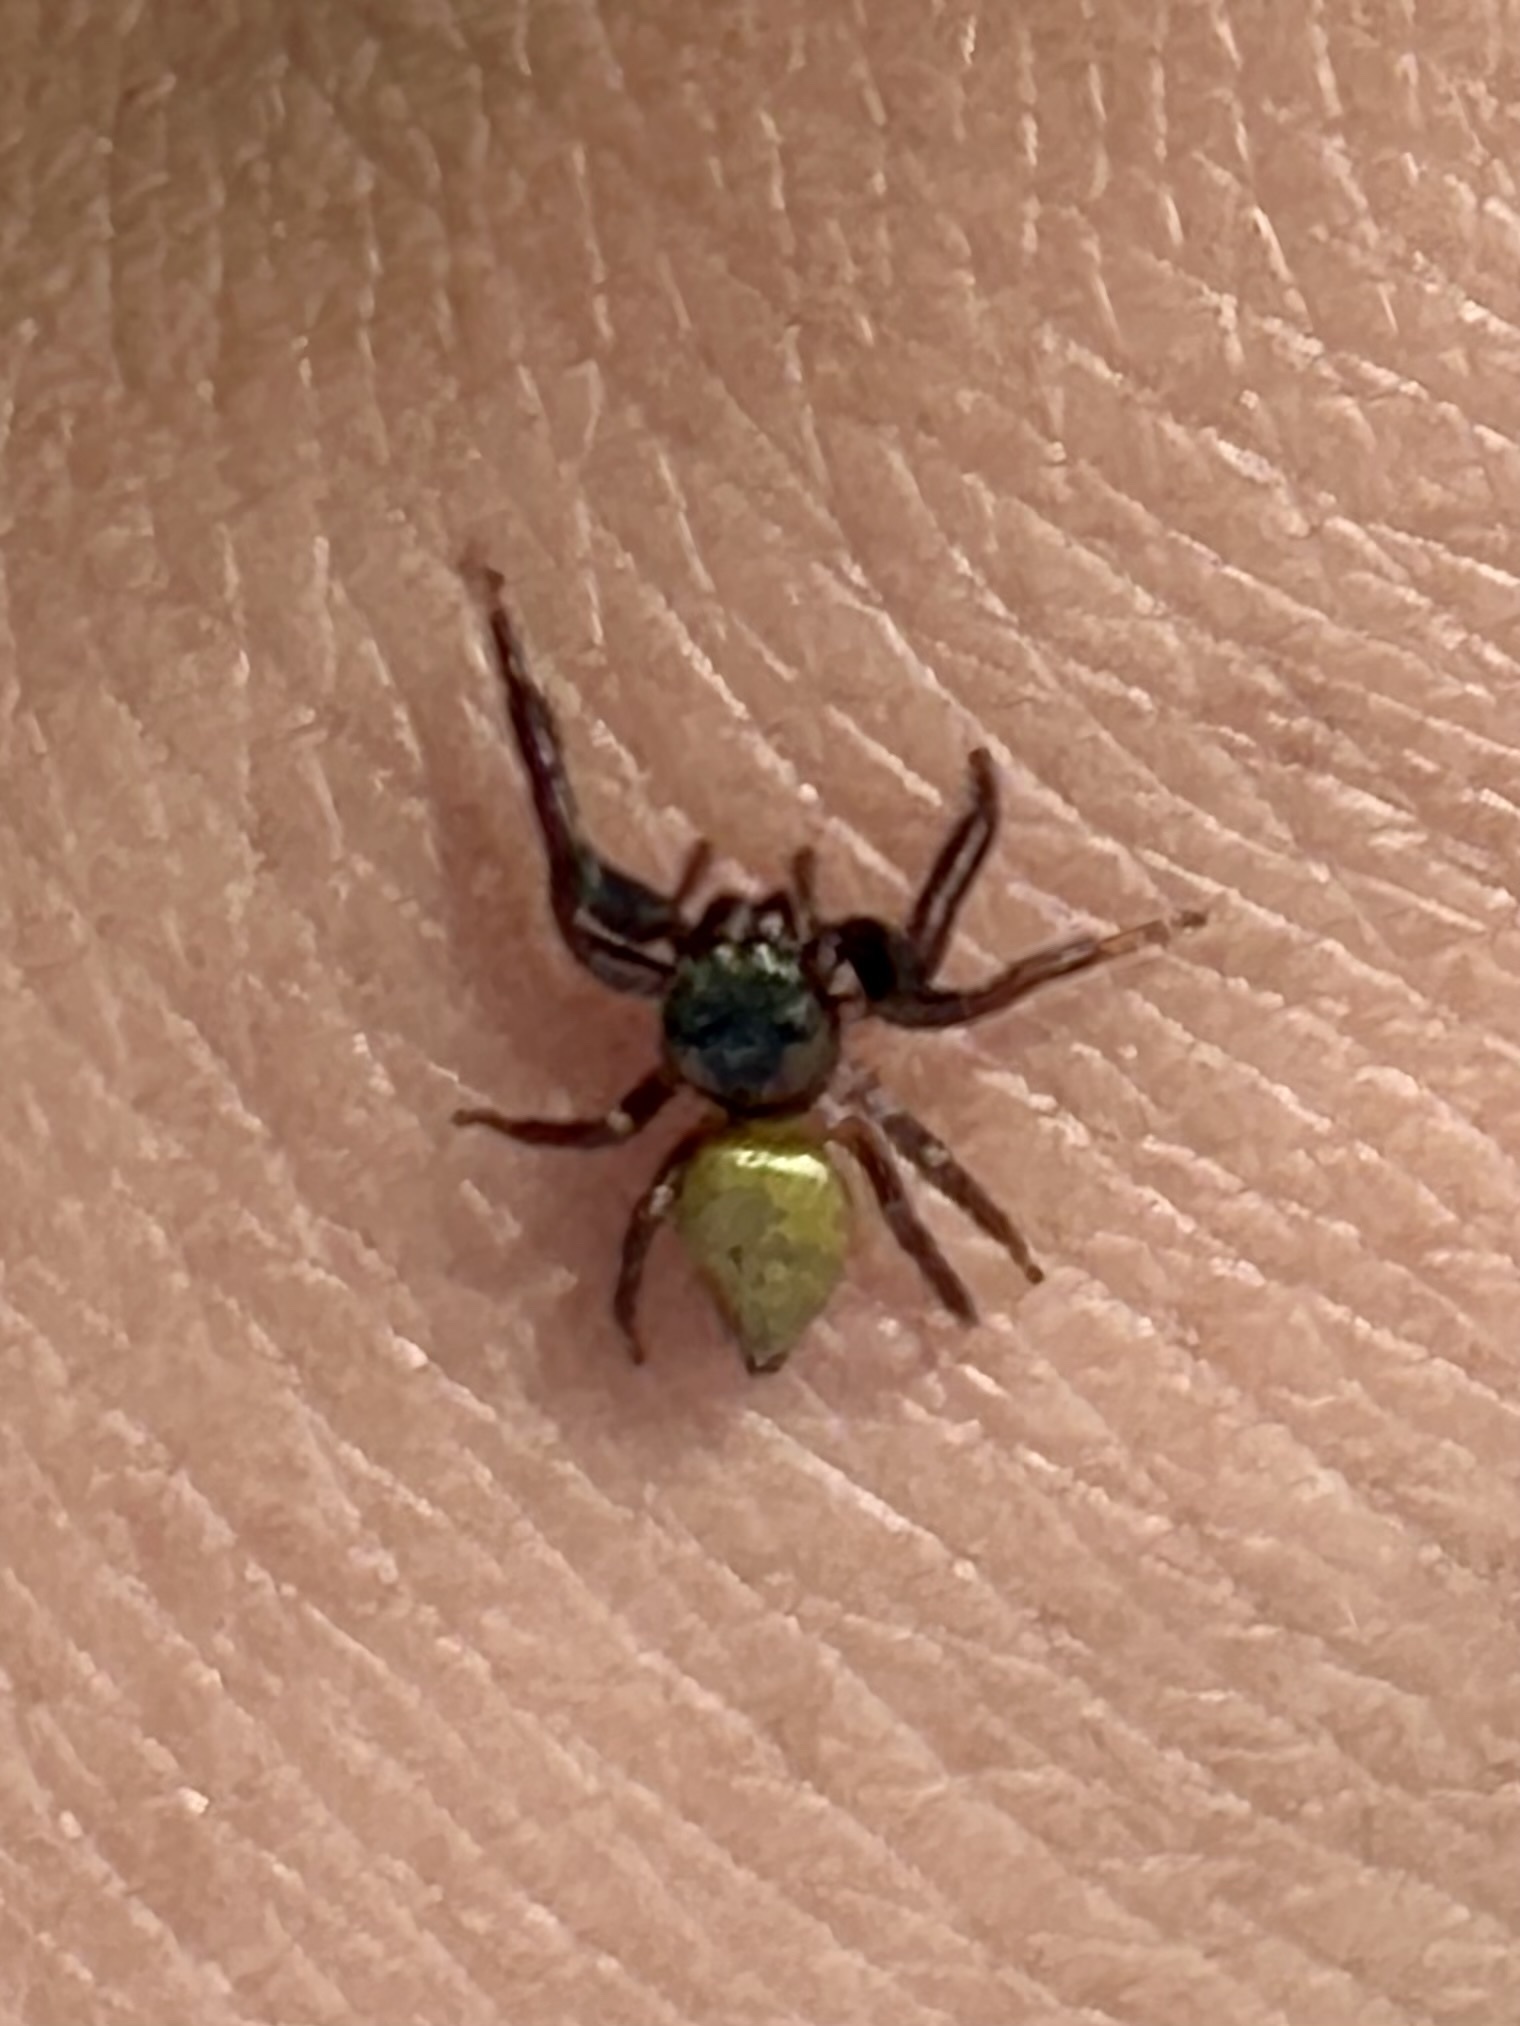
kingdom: Animalia
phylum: Arthropoda
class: Arachnida
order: Araneae
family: Salticidae
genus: Messua
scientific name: Messua limbata
